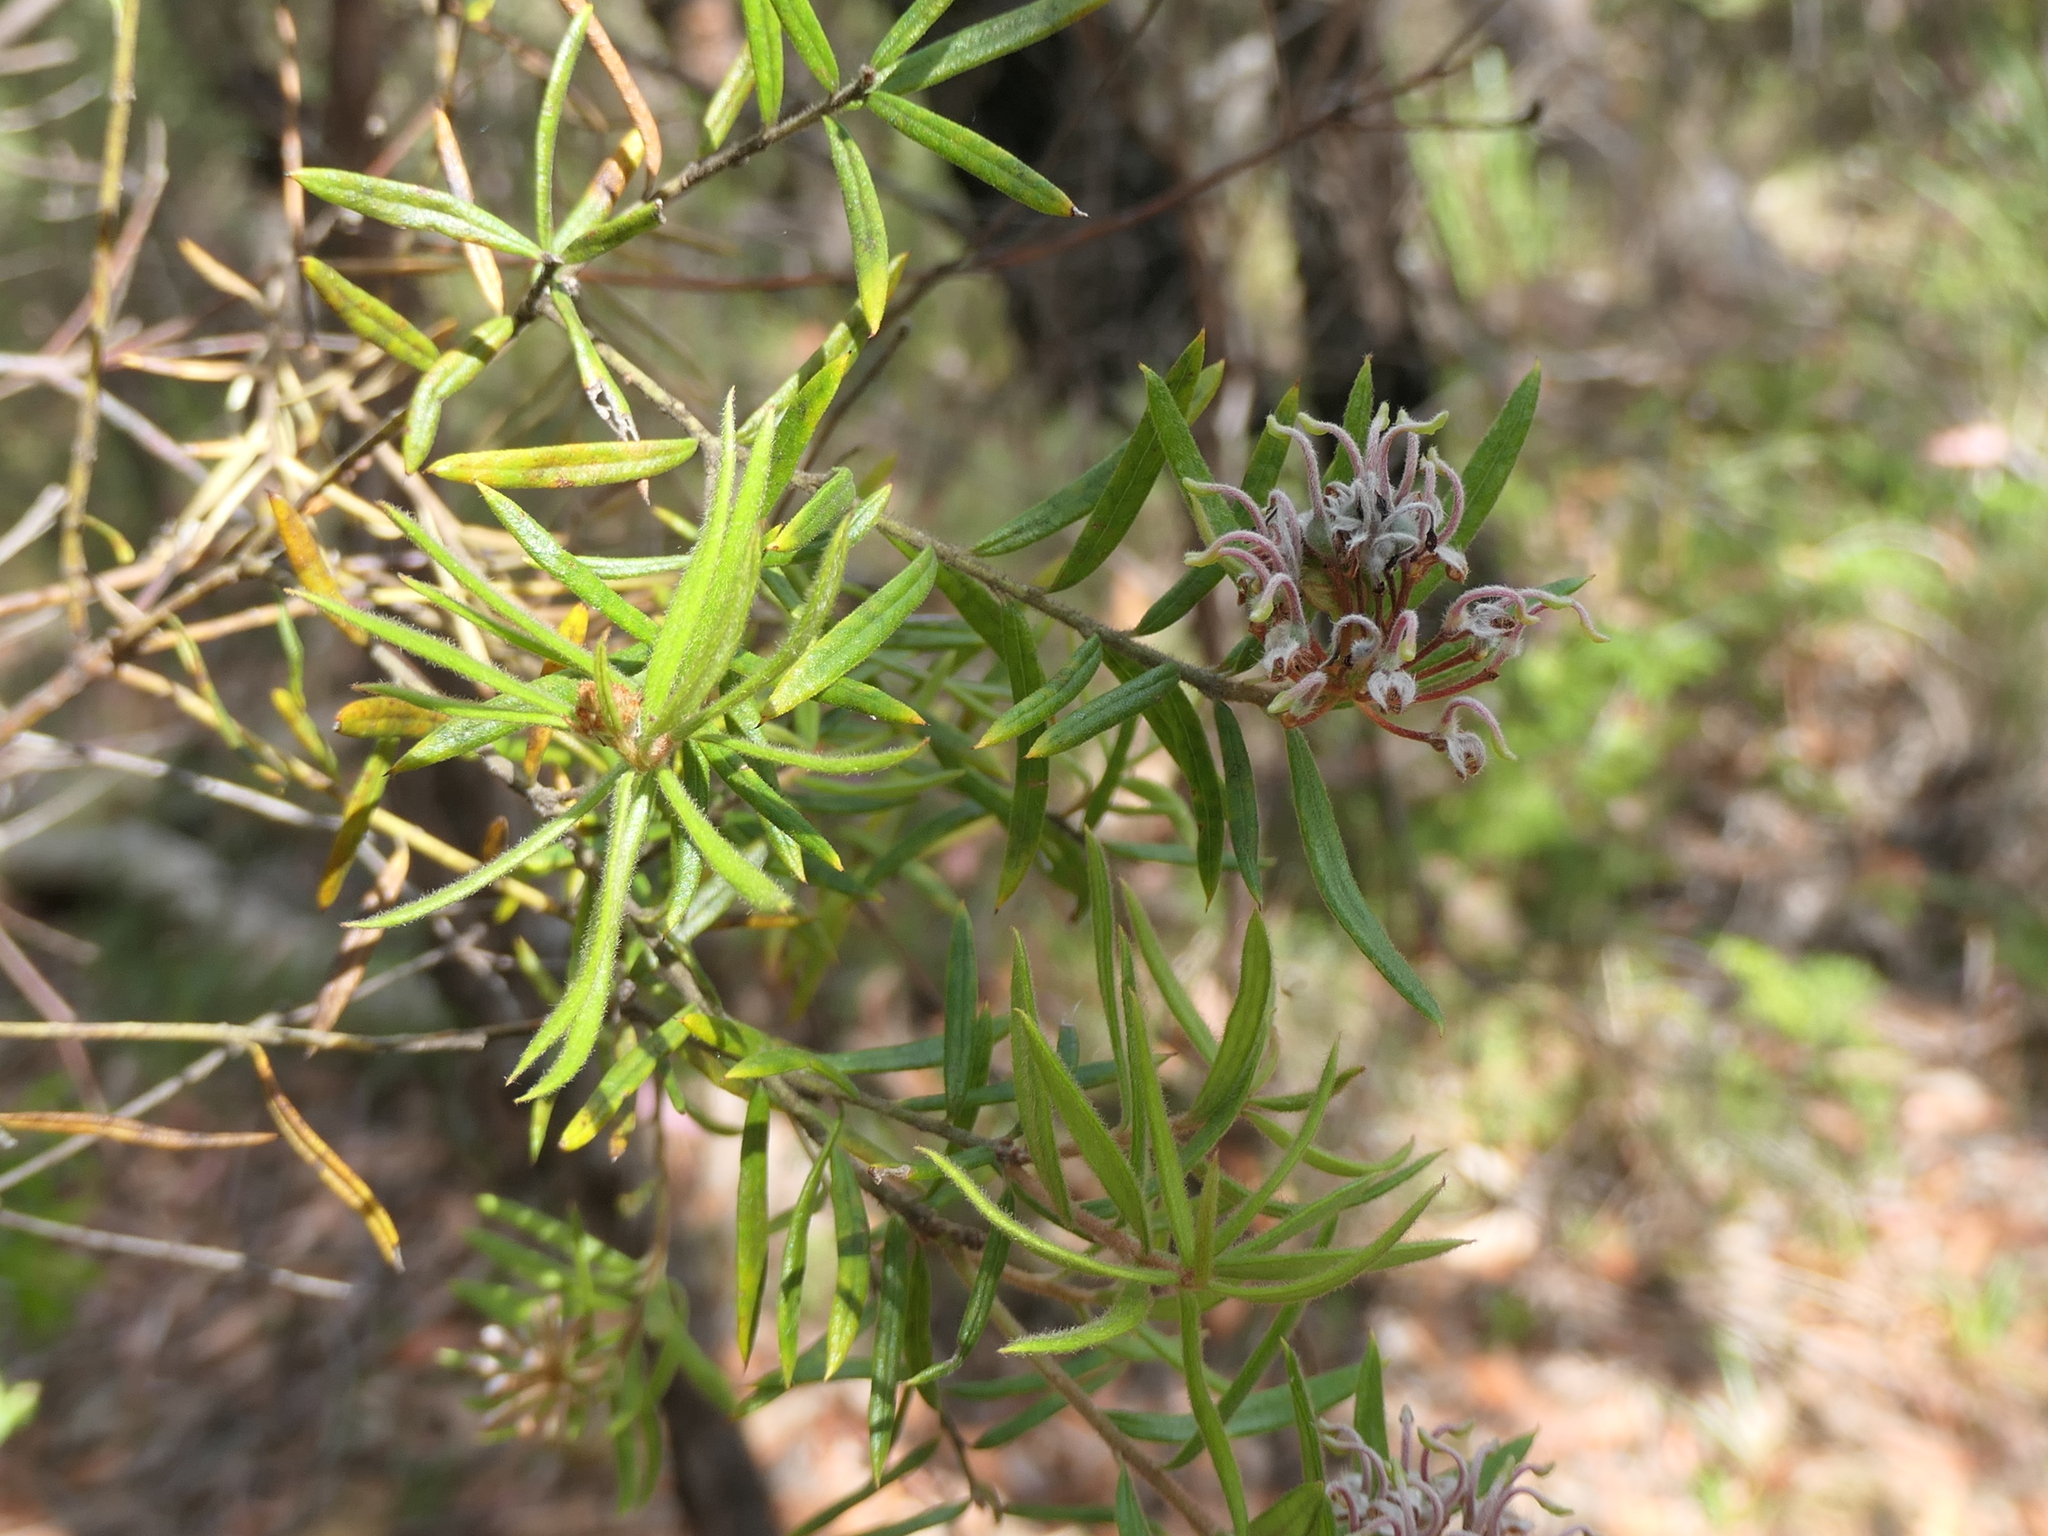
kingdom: Plantae
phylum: Tracheophyta
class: Magnoliopsida
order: Proteales
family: Proteaceae
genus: Grevillea
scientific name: Grevillea phylicoides
